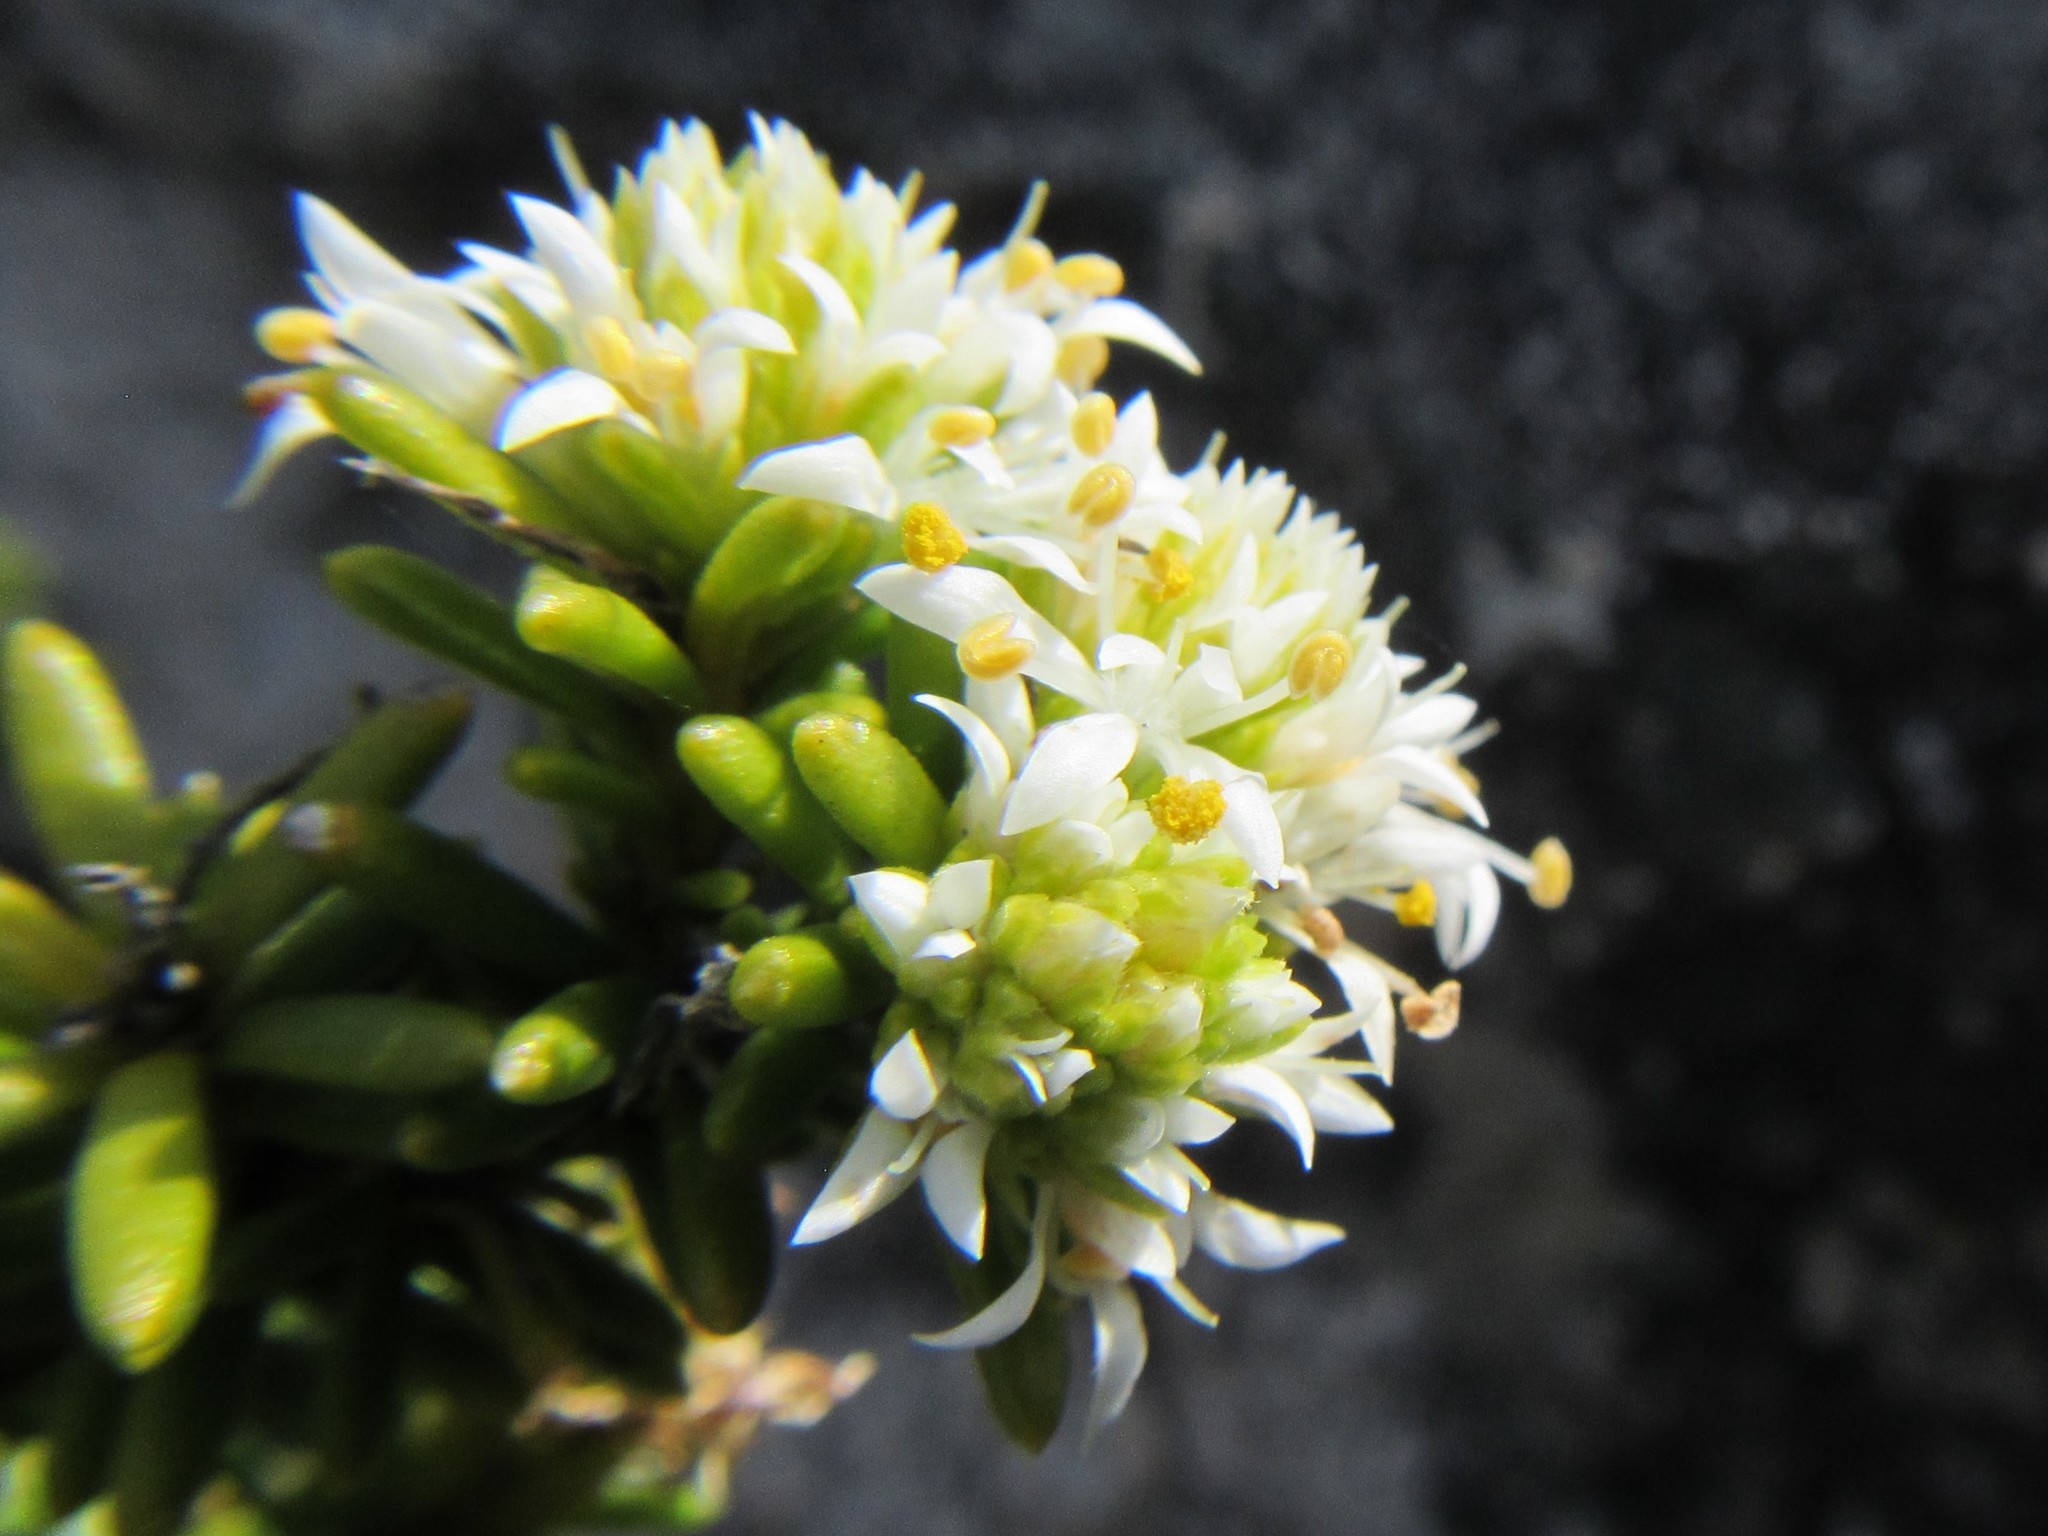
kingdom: Plantae
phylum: Tracheophyta
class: Magnoliopsida
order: Lamiales
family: Stilbaceae
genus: Stilbe
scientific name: Stilbe rupestris
